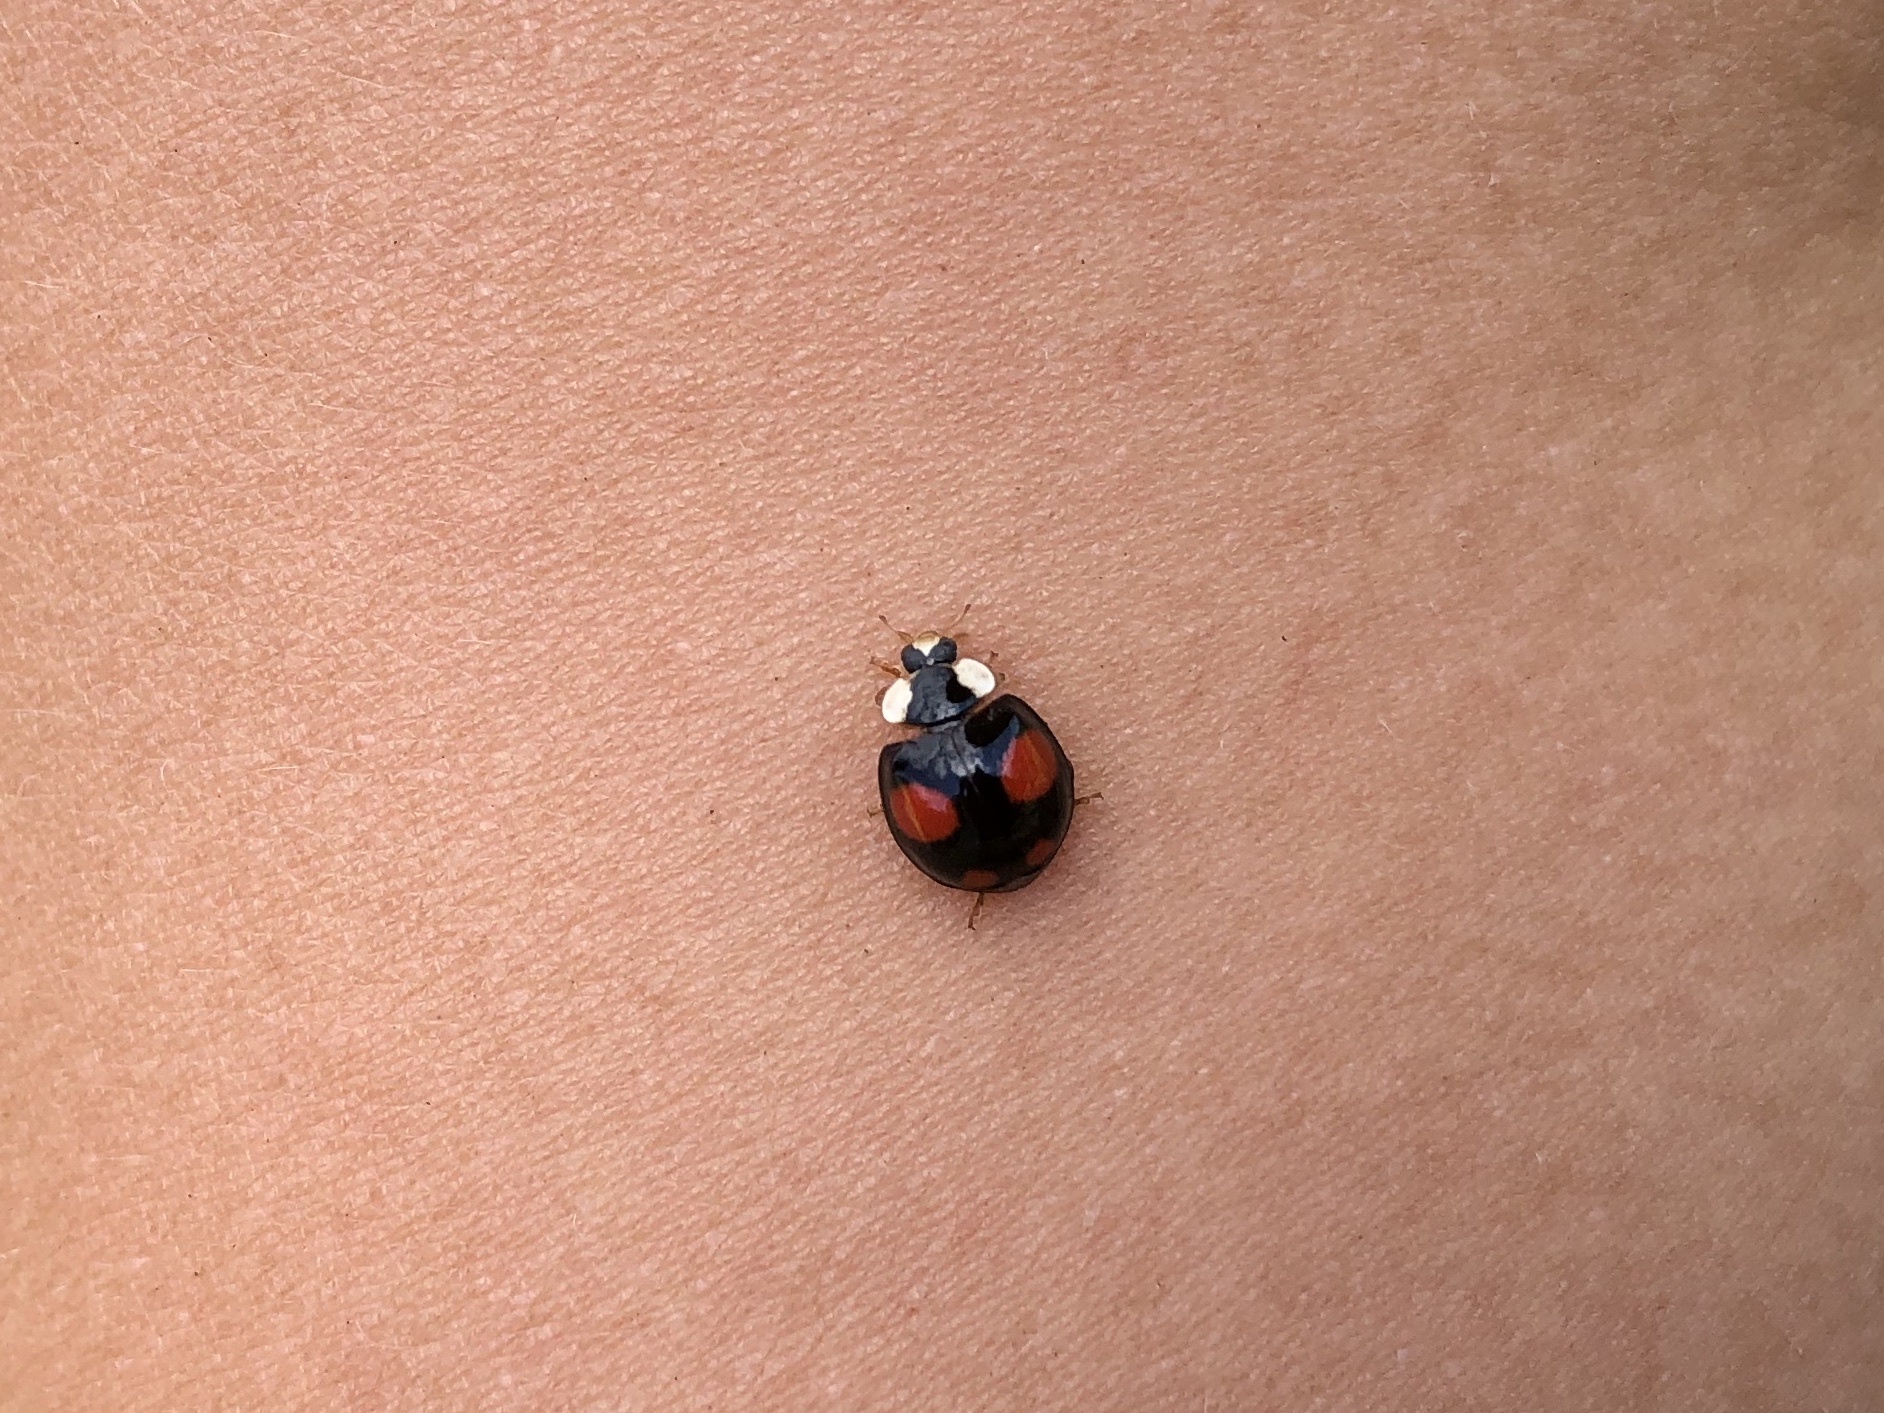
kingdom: Animalia
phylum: Arthropoda
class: Insecta
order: Coleoptera
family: Coccinellidae
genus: Harmonia
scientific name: Harmonia axyridis
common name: Harlequin ladybird
